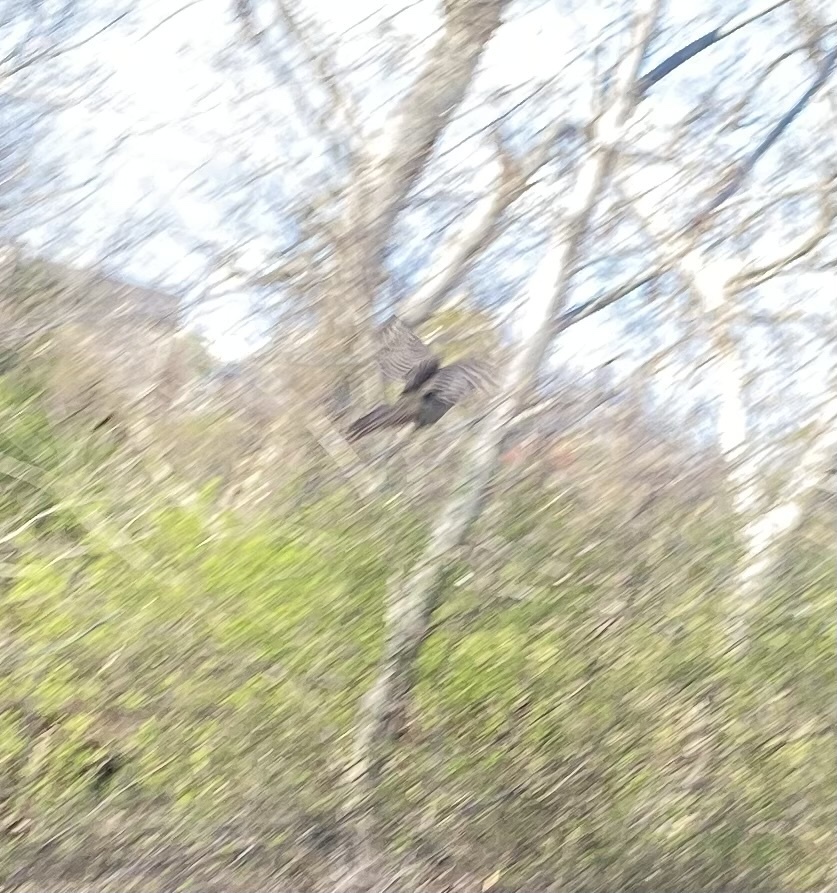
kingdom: Animalia
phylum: Chordata
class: Aves
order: Galliformes
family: Phasianidae
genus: Phasianus
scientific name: Phasianus colchicus
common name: Common pheasant
